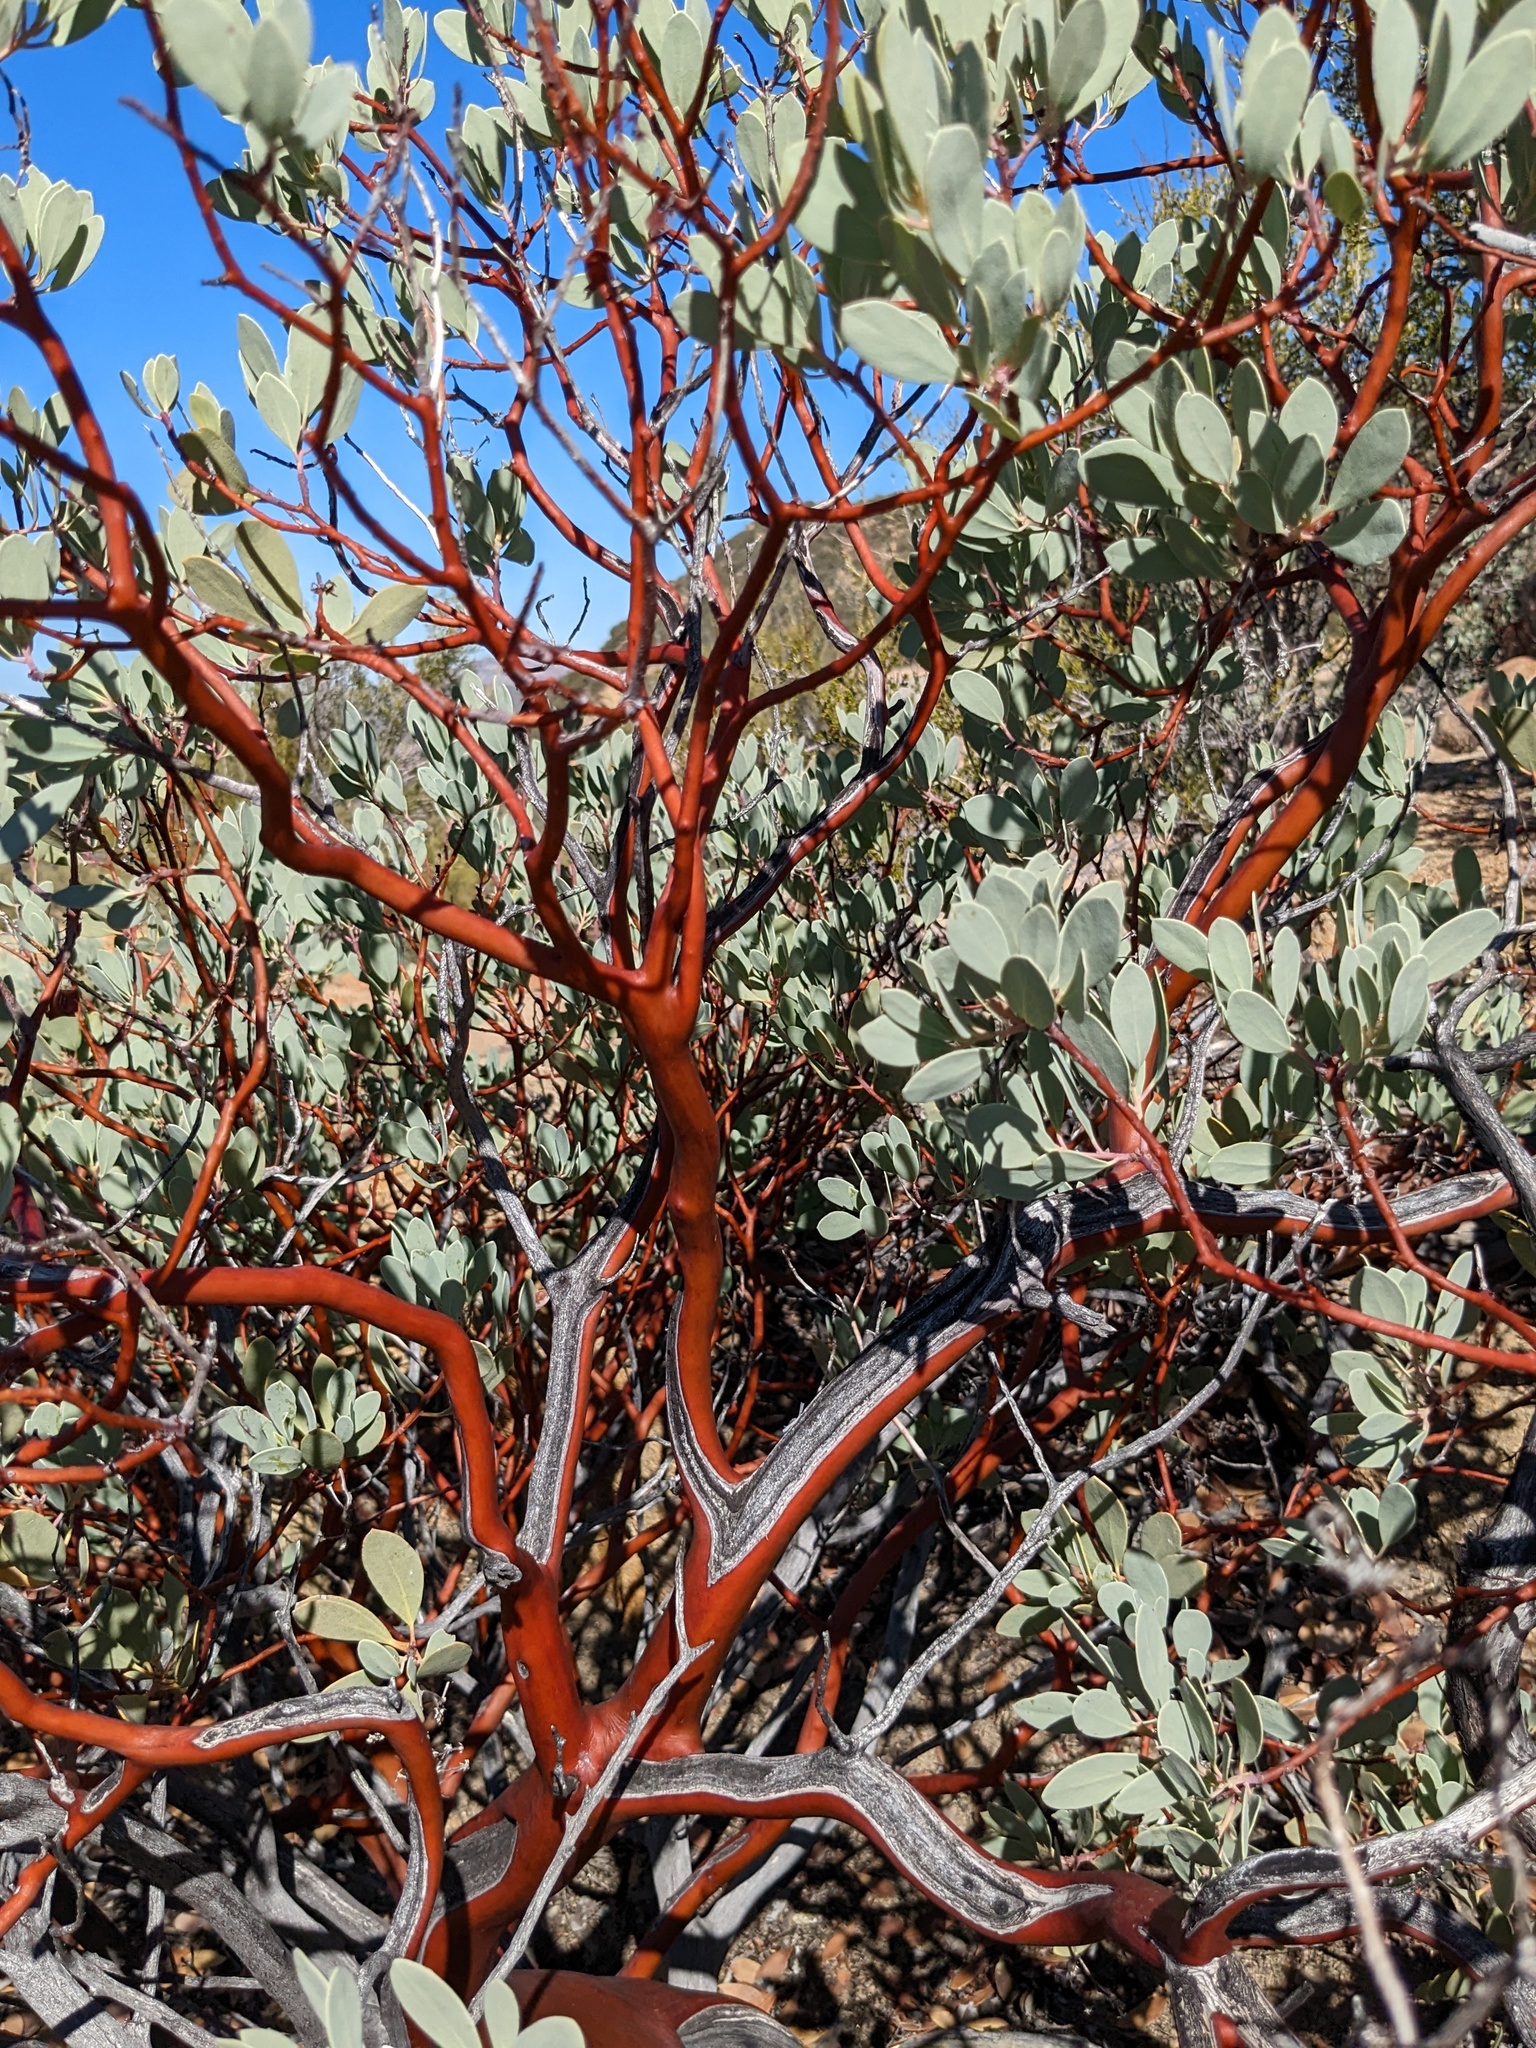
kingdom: Plantae
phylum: Tracheophyta
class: Magnoliopsida
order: Ericales
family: Ericaceae
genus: Arctostaphylos
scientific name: Arctostaphylos peninsularis
